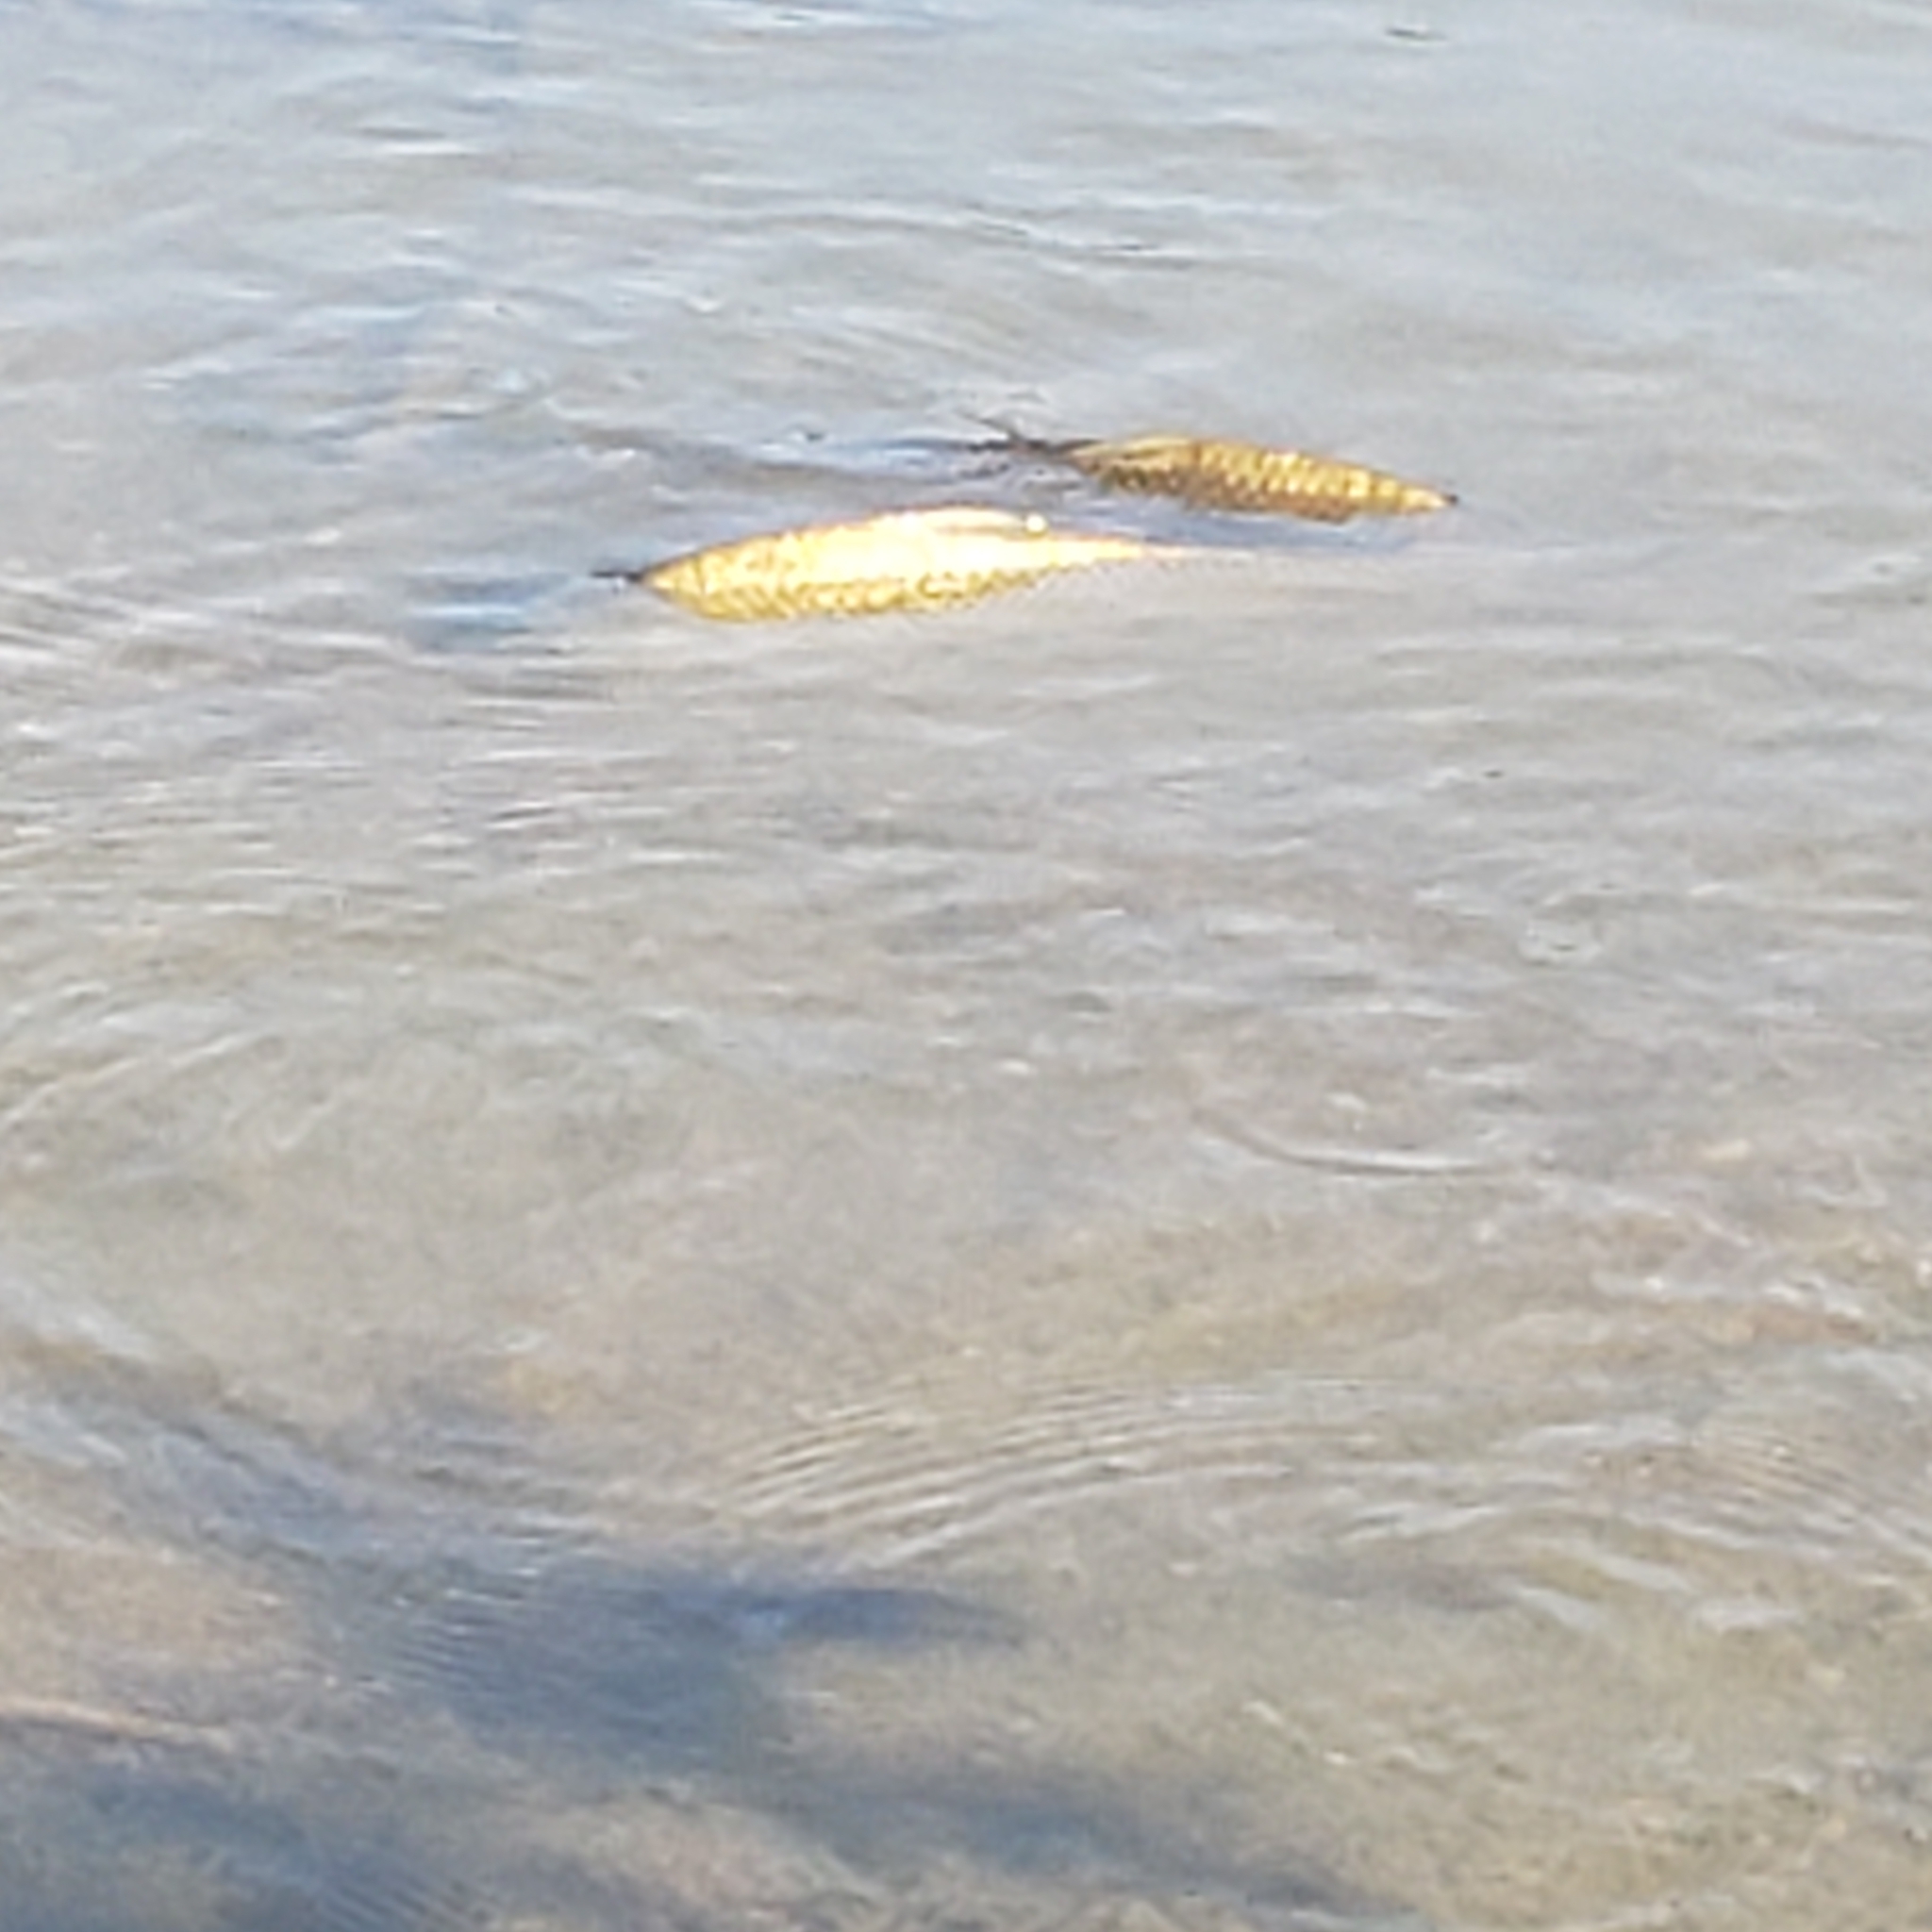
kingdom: Animalia
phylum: Chordata
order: Cypriniformes
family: Cyprinidae
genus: Cyprinus
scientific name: Cyprinus carpio
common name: Common carp
